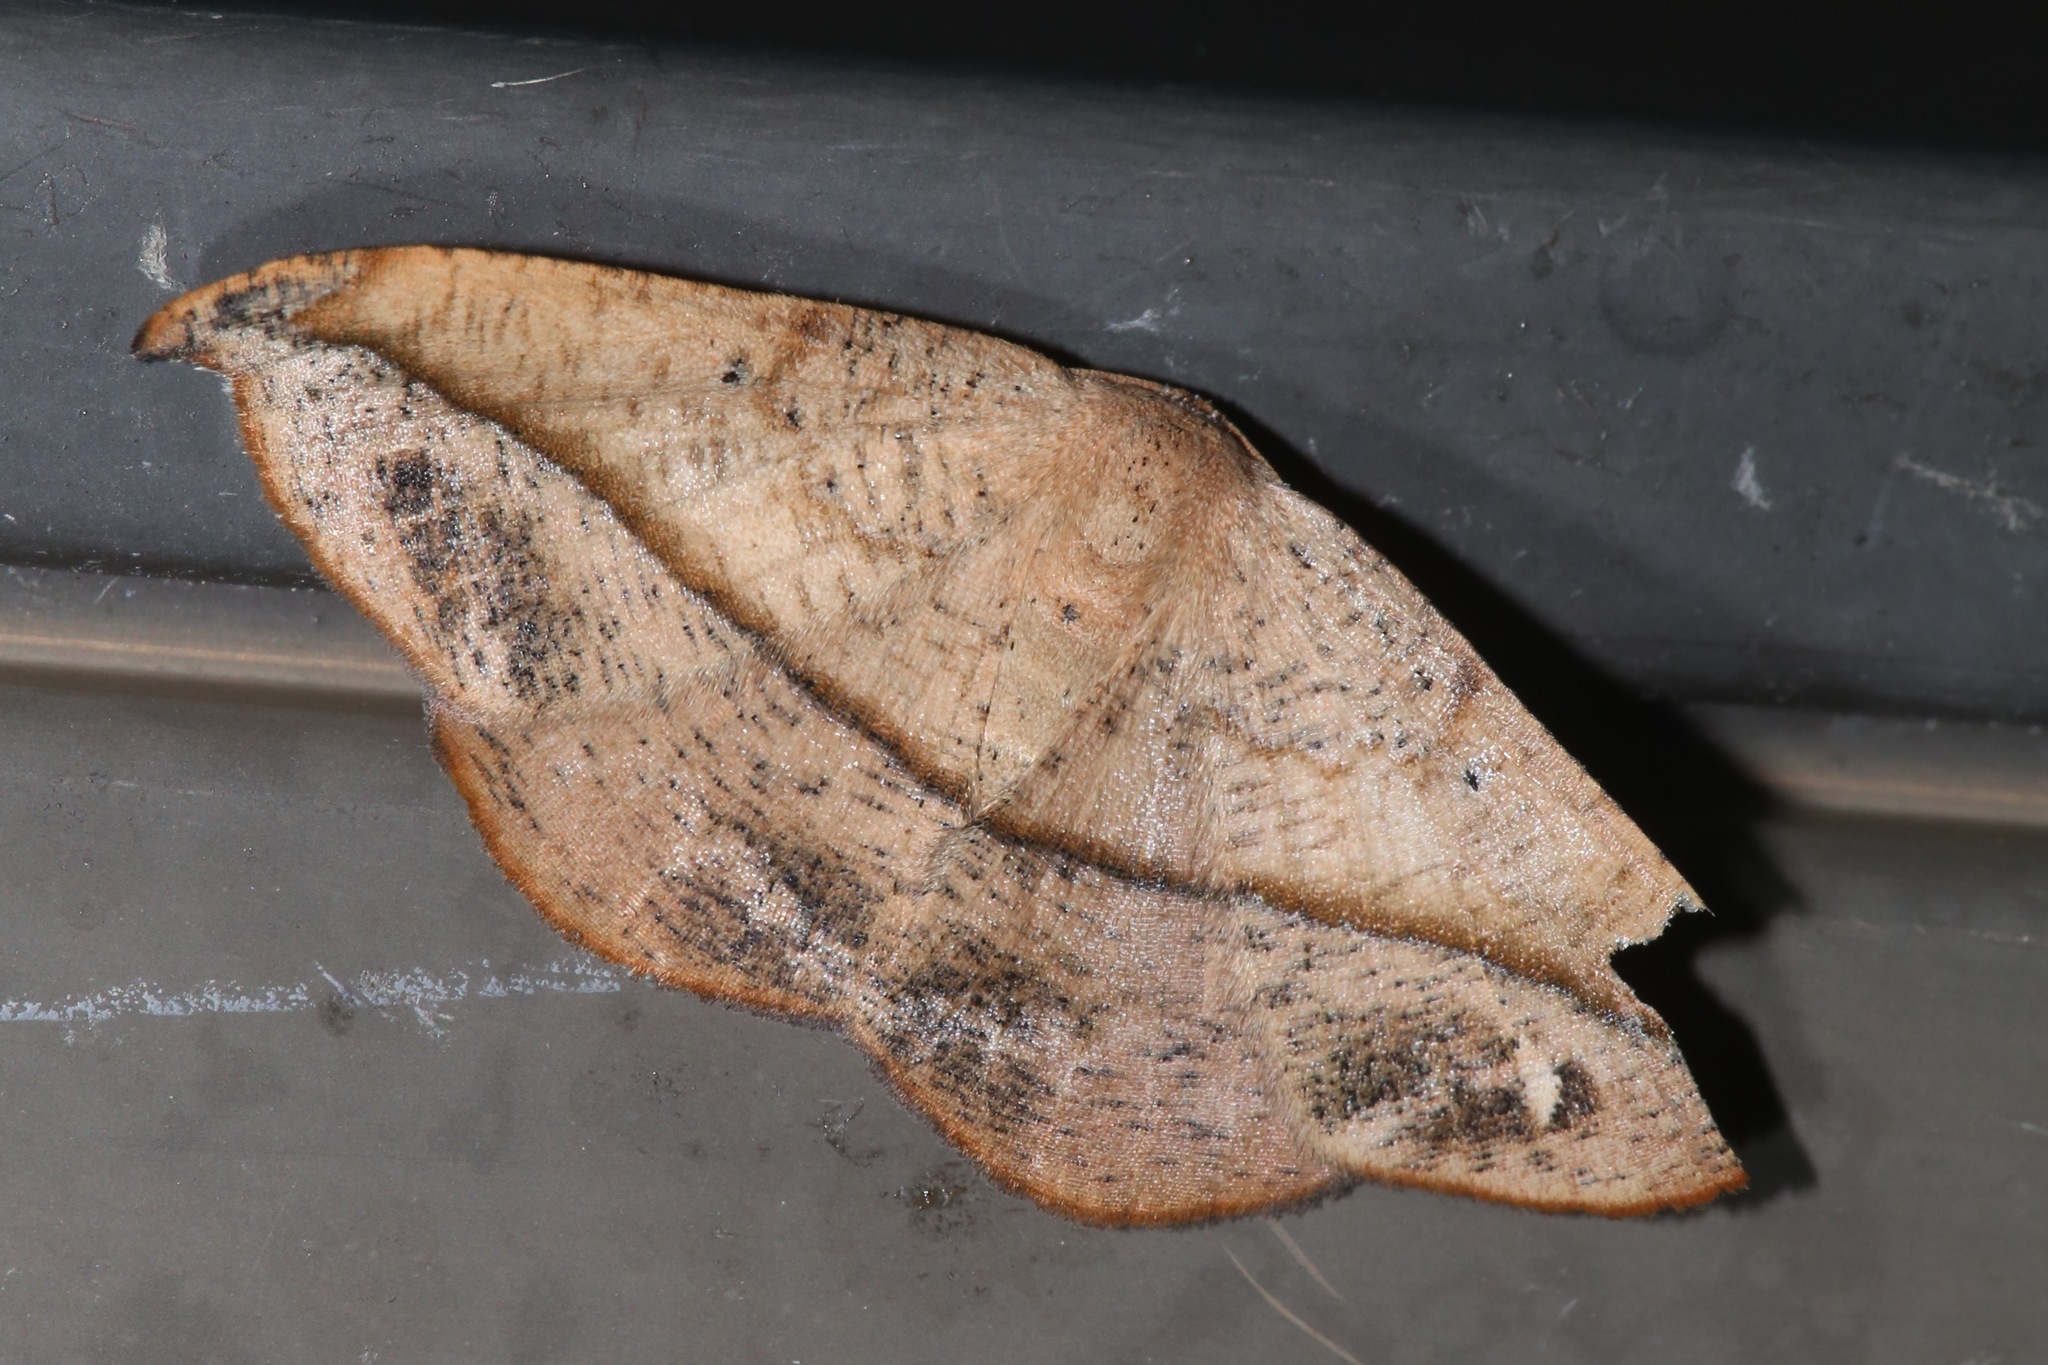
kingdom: Animalia
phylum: Arthropoda
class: Insecta
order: Lepidoptera
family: Geometridae
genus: Patalene
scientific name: Patalene olyzonaria
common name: Juniper geometer moth
